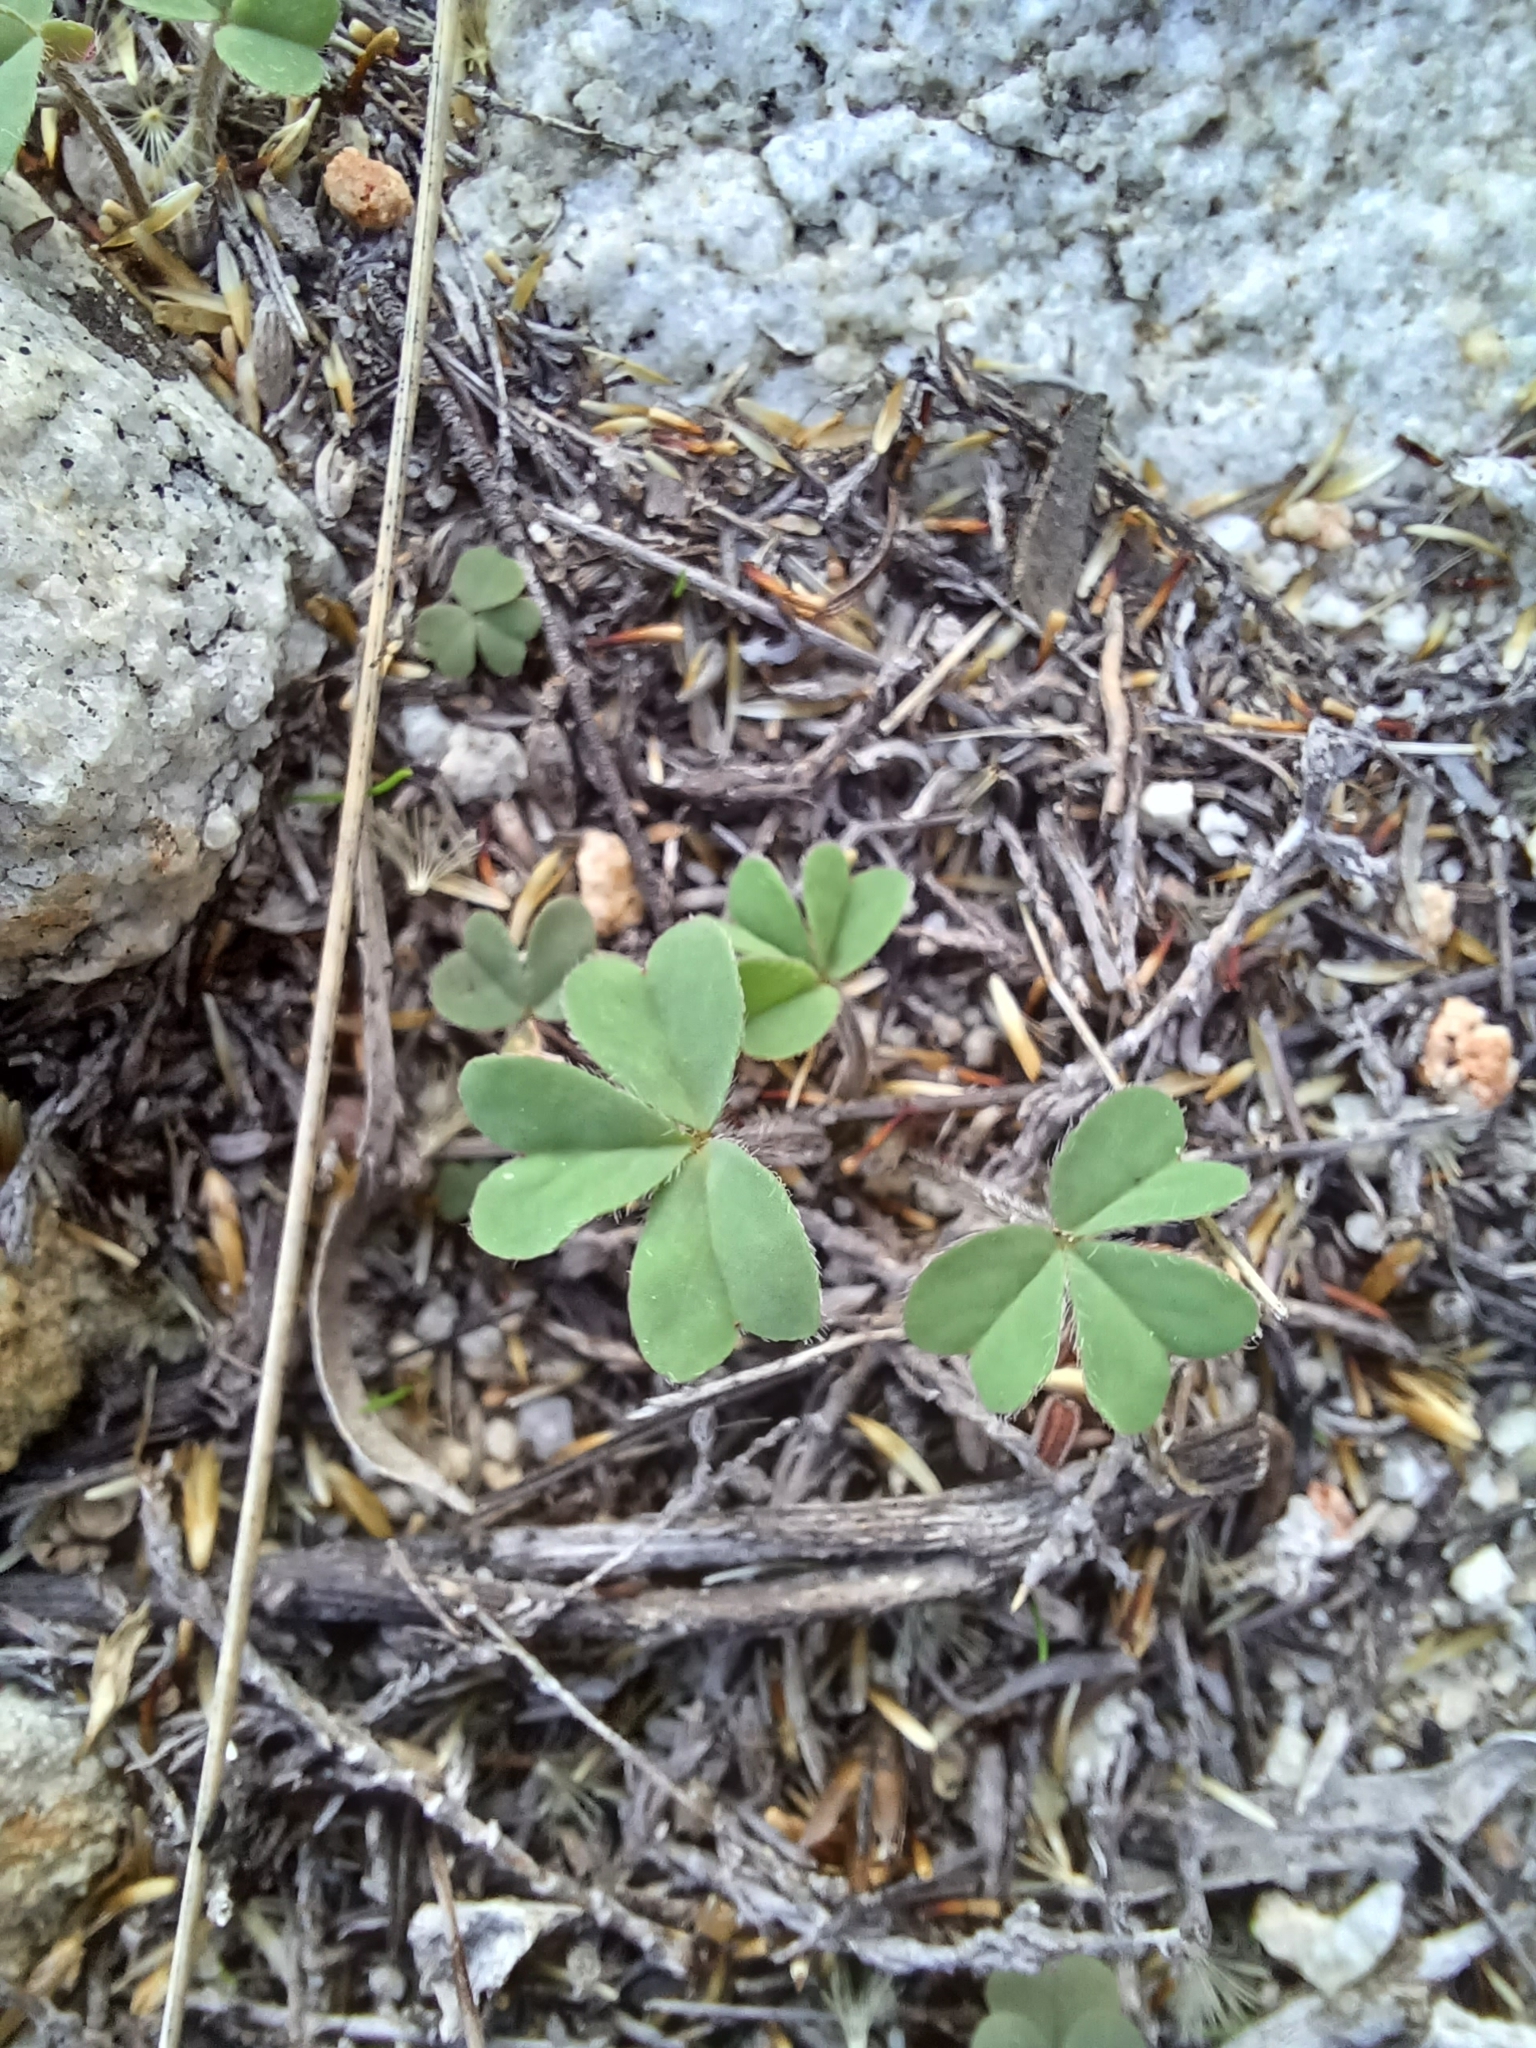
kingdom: Plantae
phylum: Tracheophyta
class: Magnoliopsida
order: Oxalidales
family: Oxalidaceae
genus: Oxalis
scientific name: Oxalis obtusa
